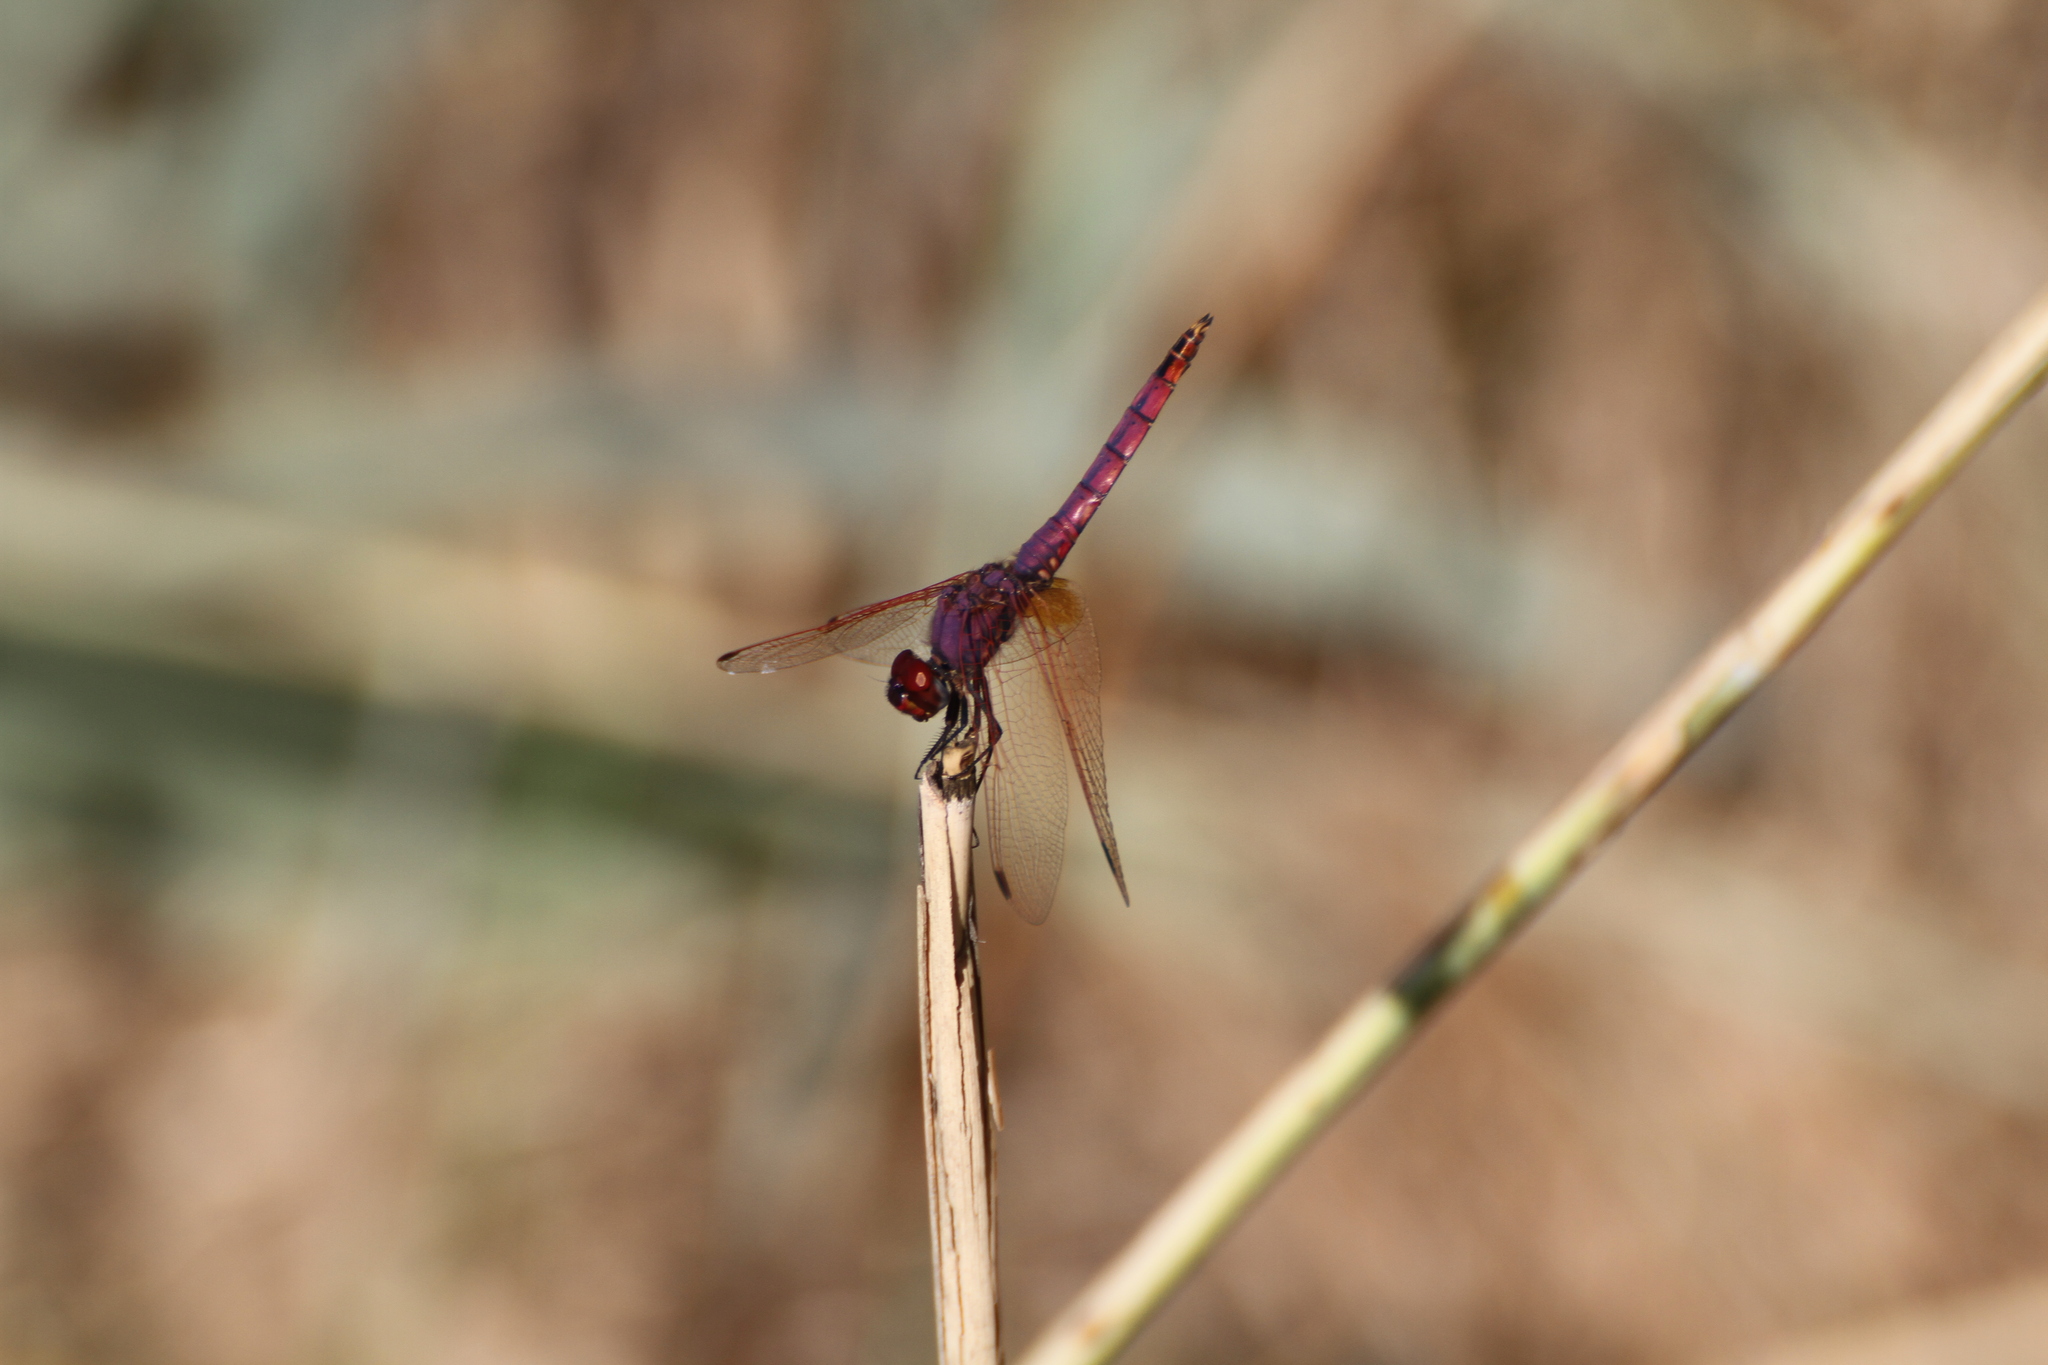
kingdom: Animalia
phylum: Arthropoda
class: Insecta
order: Odonata
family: Libellulidae
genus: Trithemis
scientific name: Trithemis annulata
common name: Violet dropwing
